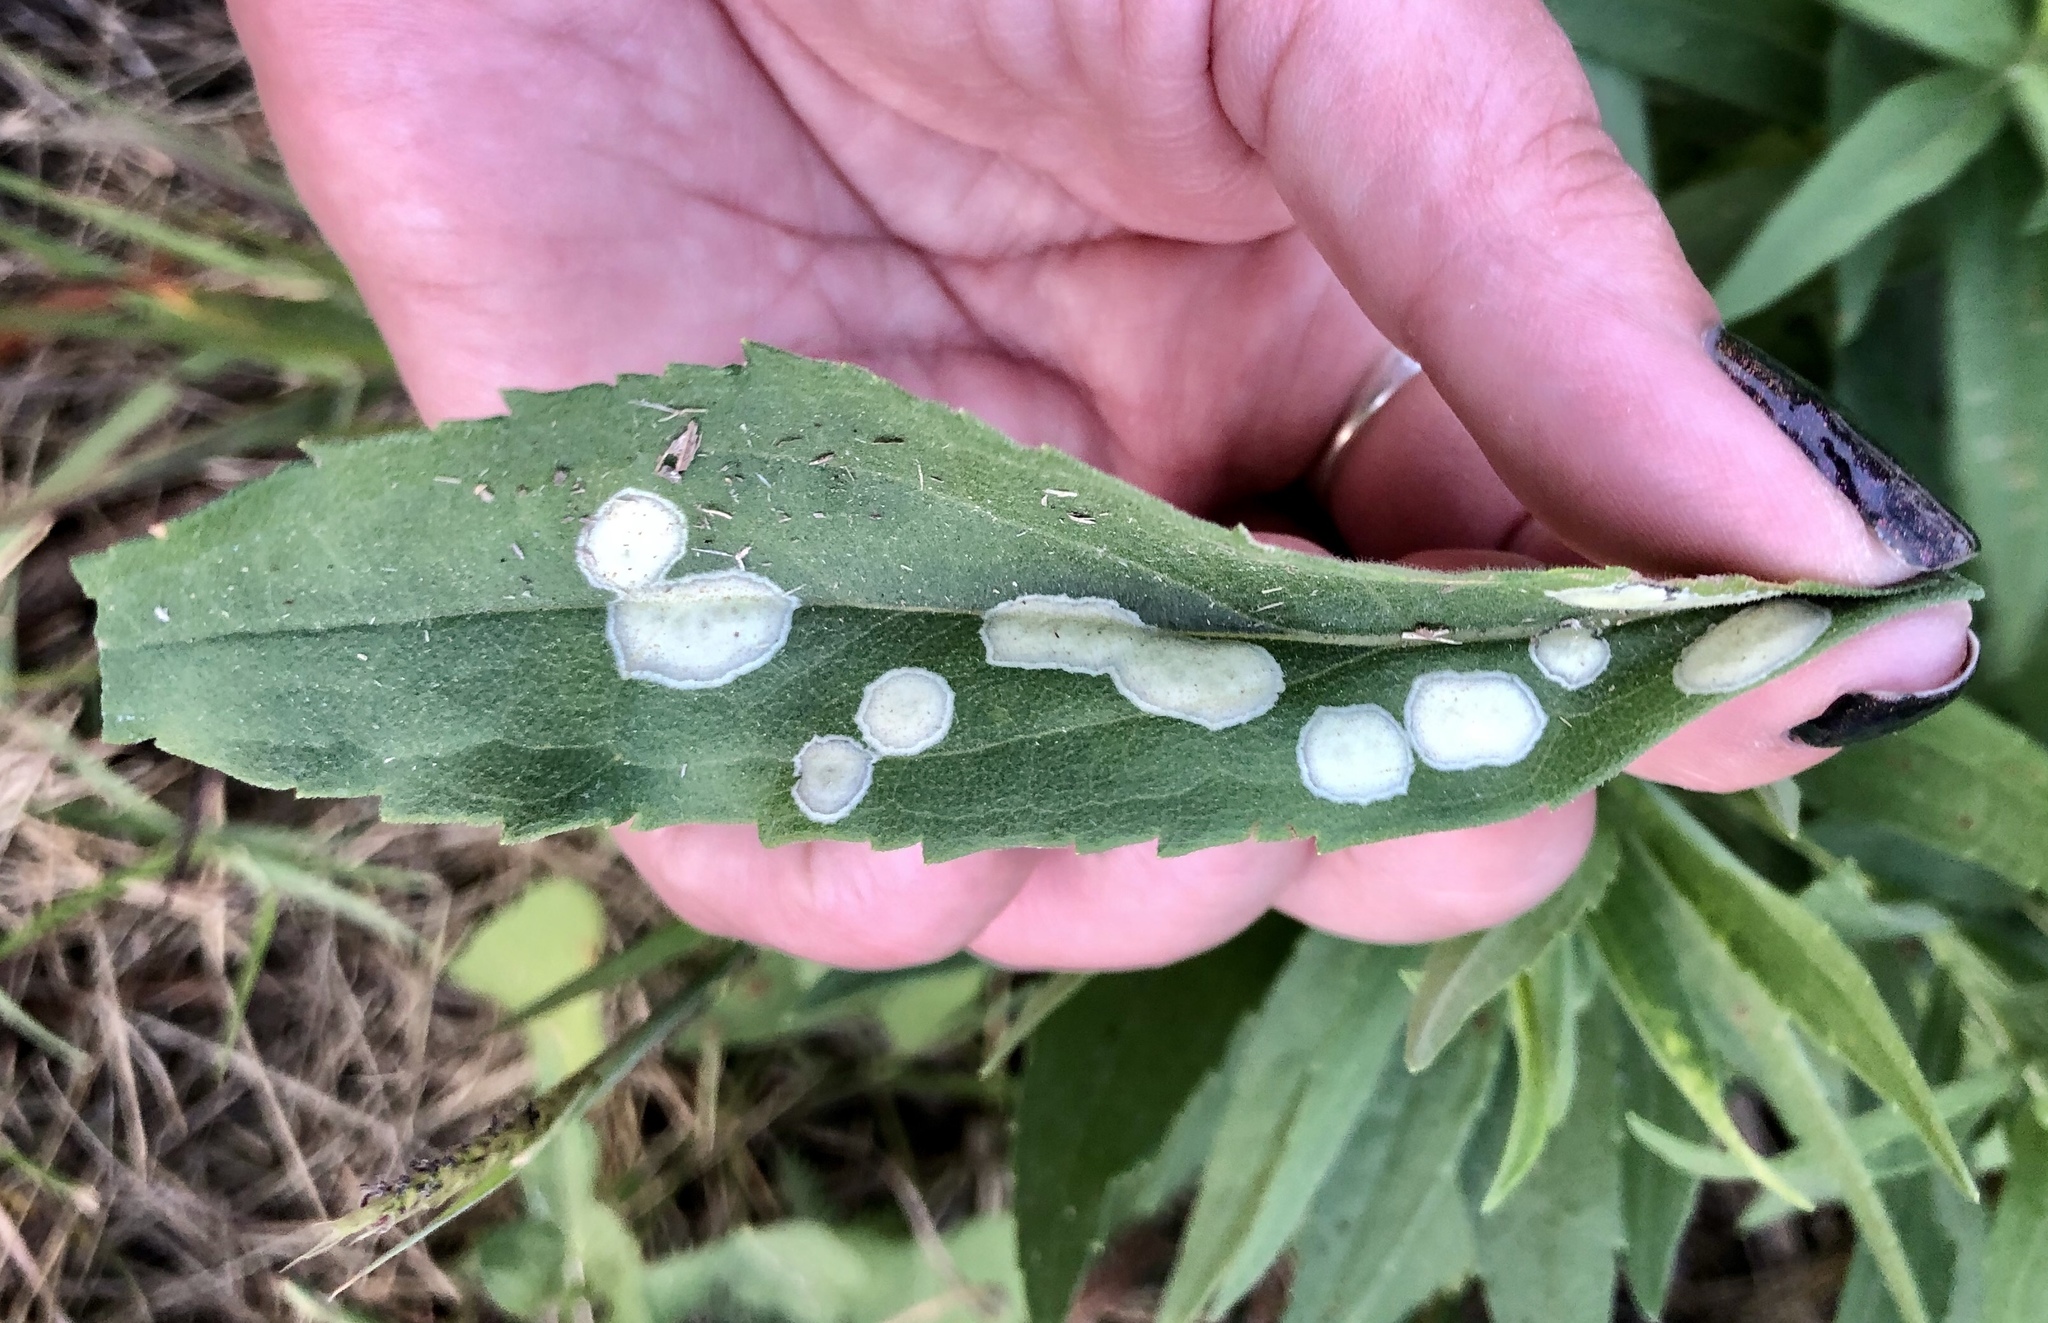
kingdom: Animalia
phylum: Arthropoda
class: Insecta
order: Diptera
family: Cecidomyiidae
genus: Asteromyia
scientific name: Asteromyia carbonifera
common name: Carbonifera goldenrod gall midge
